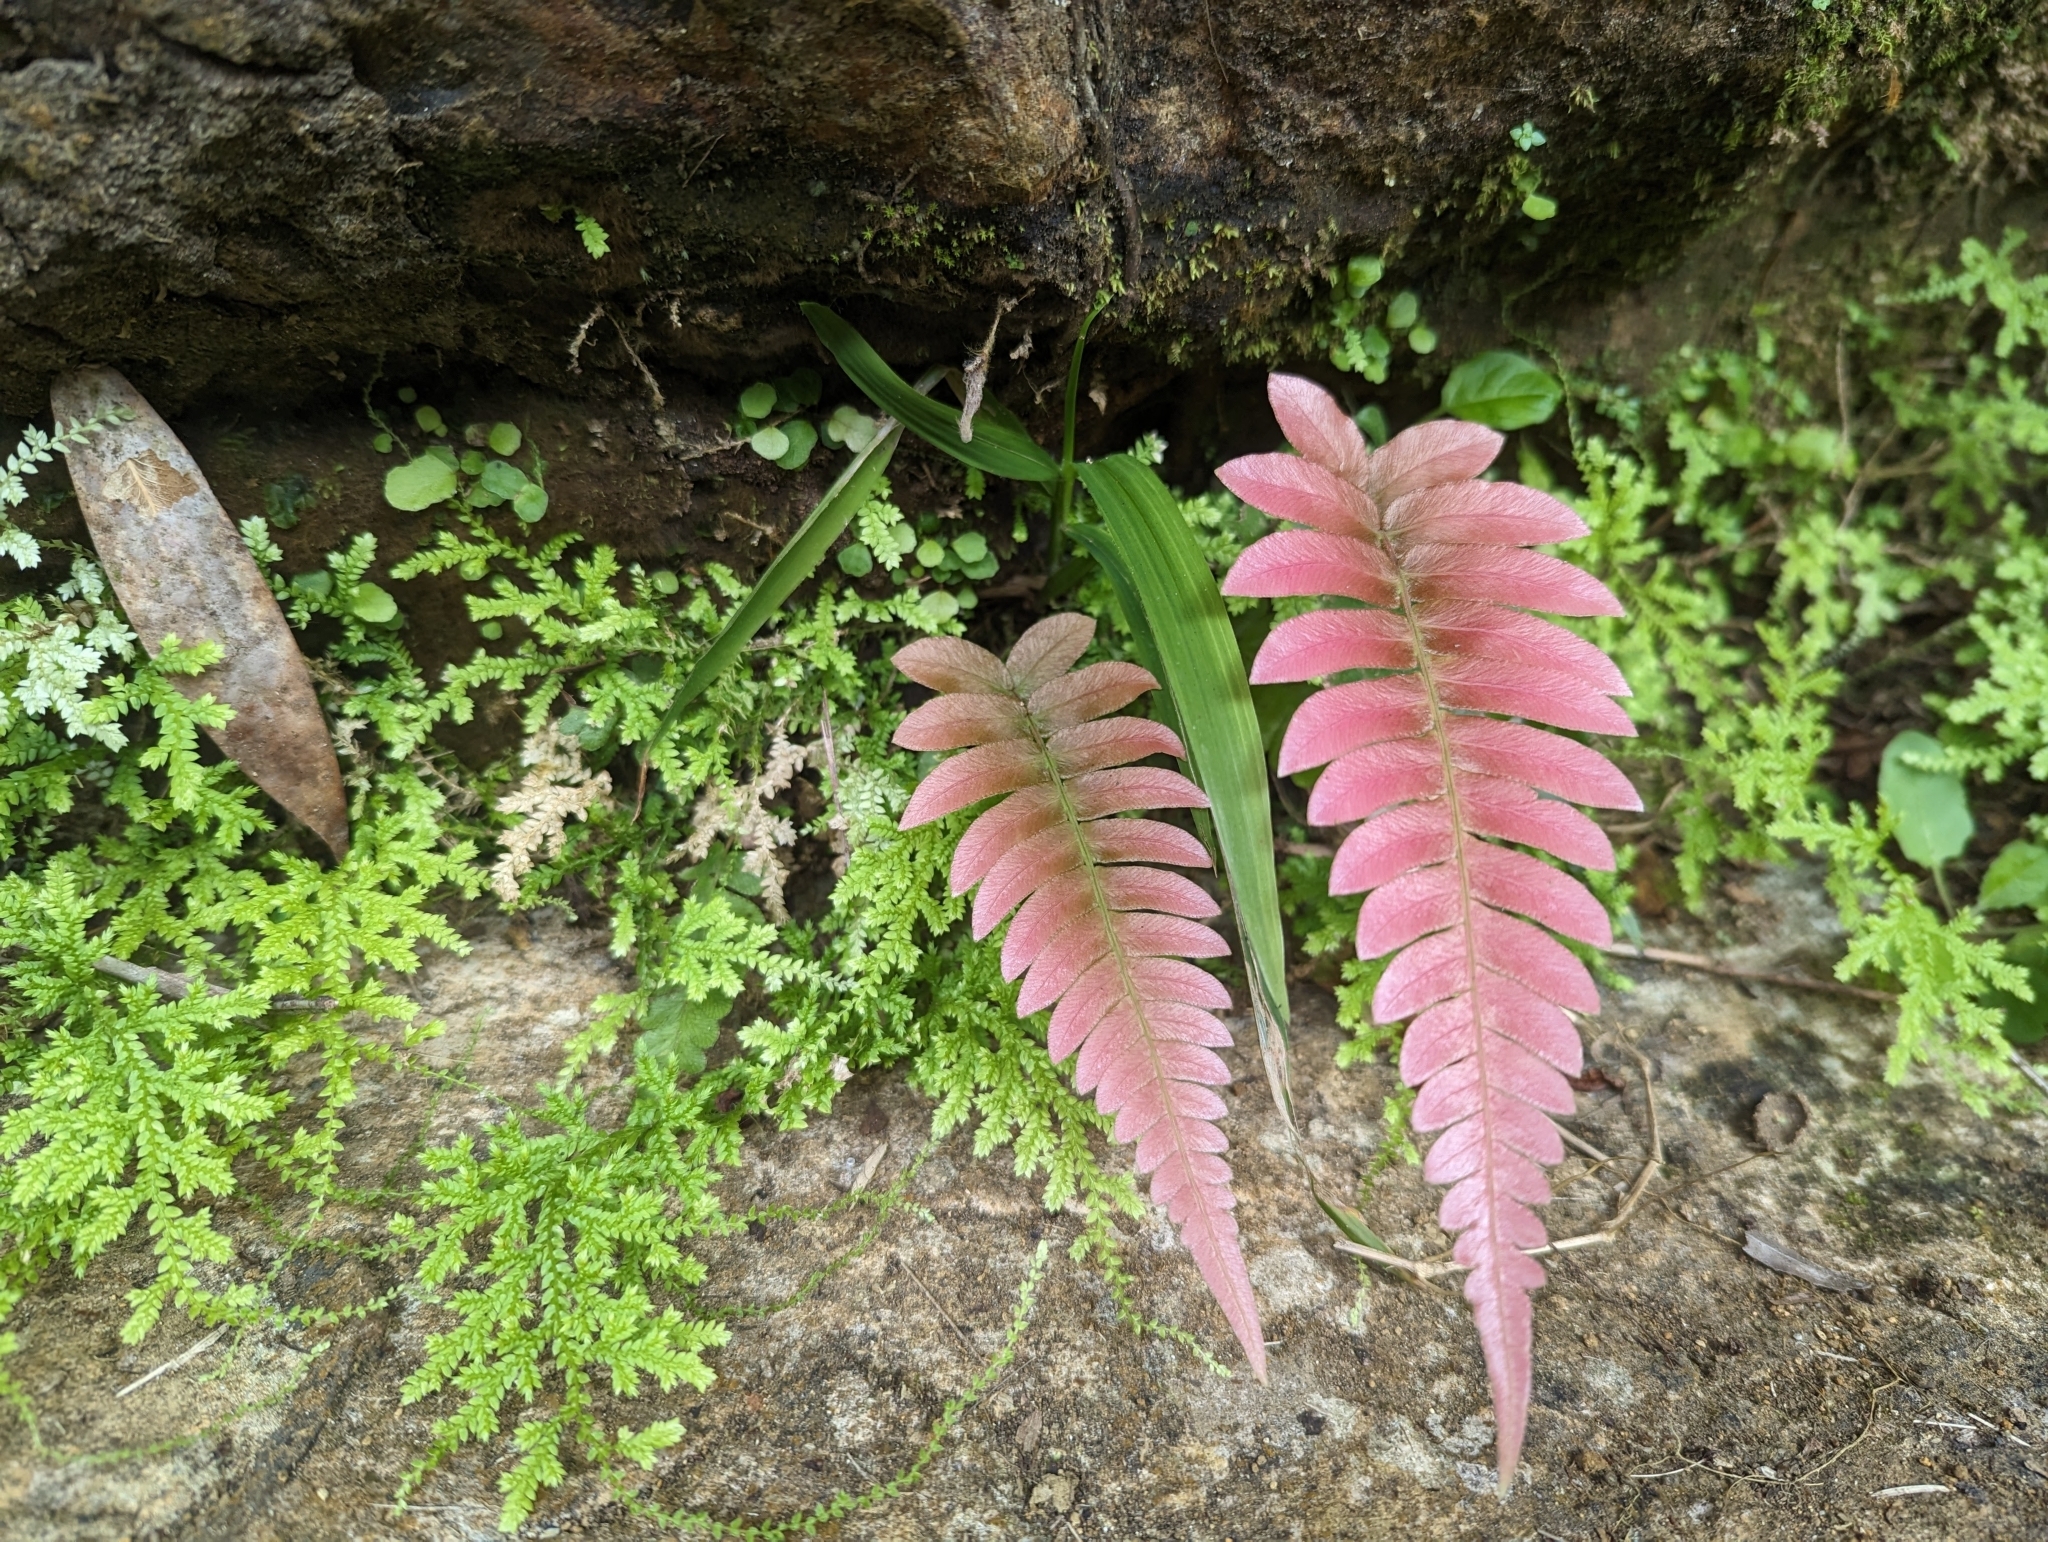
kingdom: Plantae
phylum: Tracheophyta
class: Polypodiopsida
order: Polypodiales
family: Blechnaceae
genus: Blechnum
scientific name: Blechnum occidentale
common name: Hammock fern
